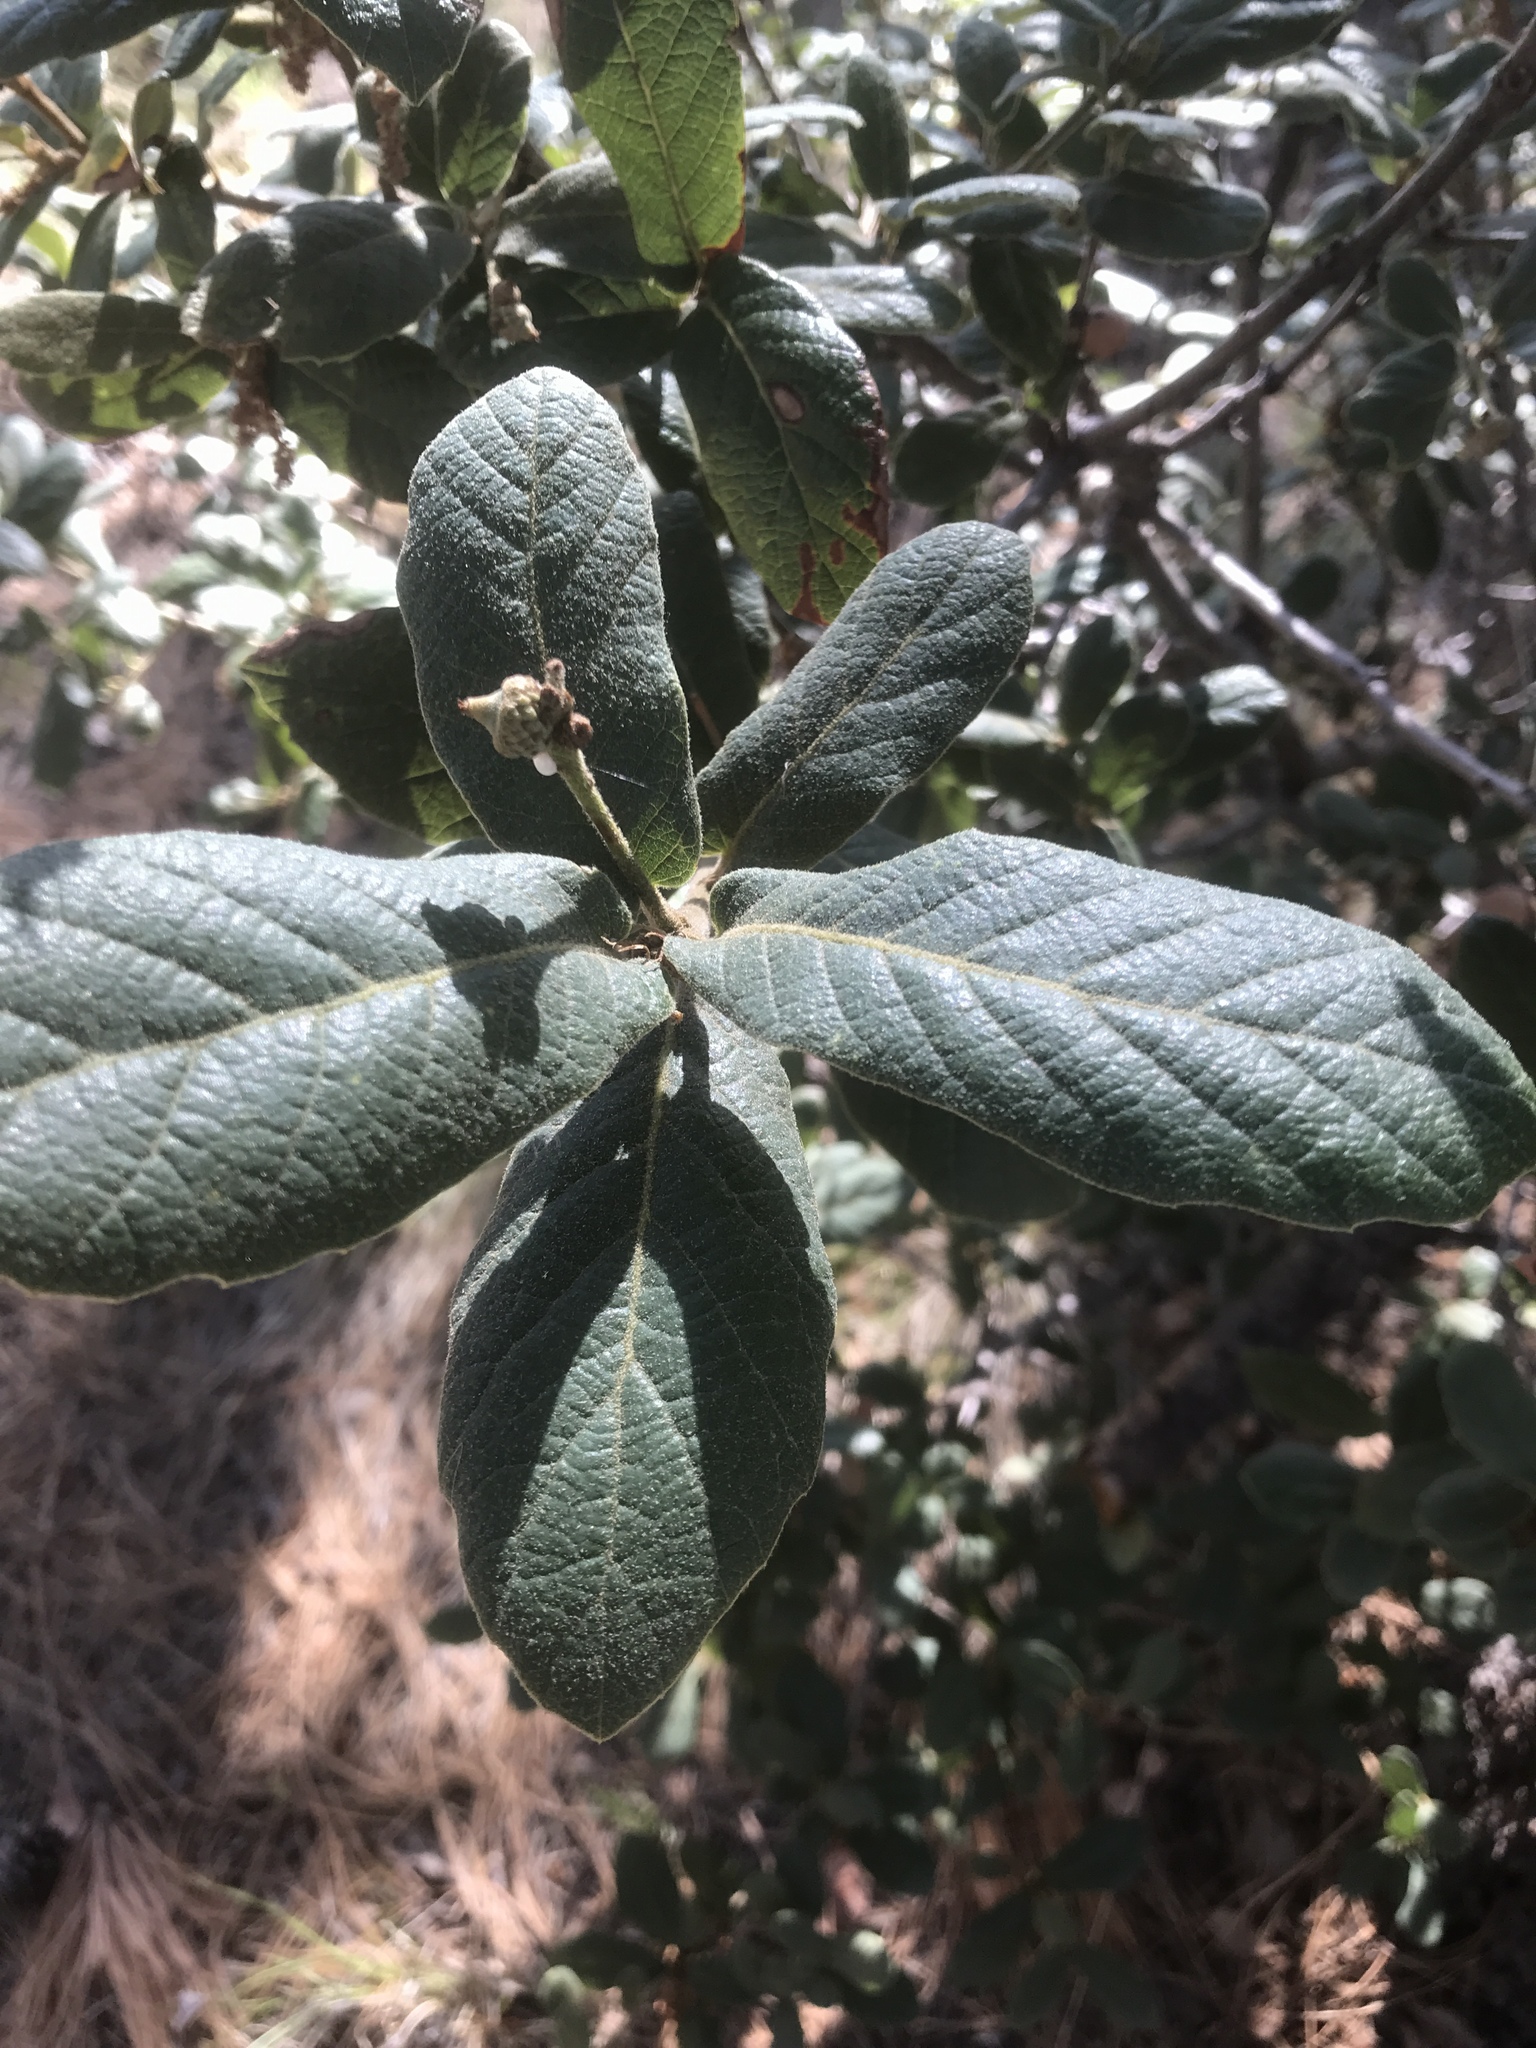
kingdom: Plantae
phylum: Tracheophyta
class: Magnoliopsida
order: Fagales
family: Fagaceae
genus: Quercus
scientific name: Quercus rugosa
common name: Netleaf oak
